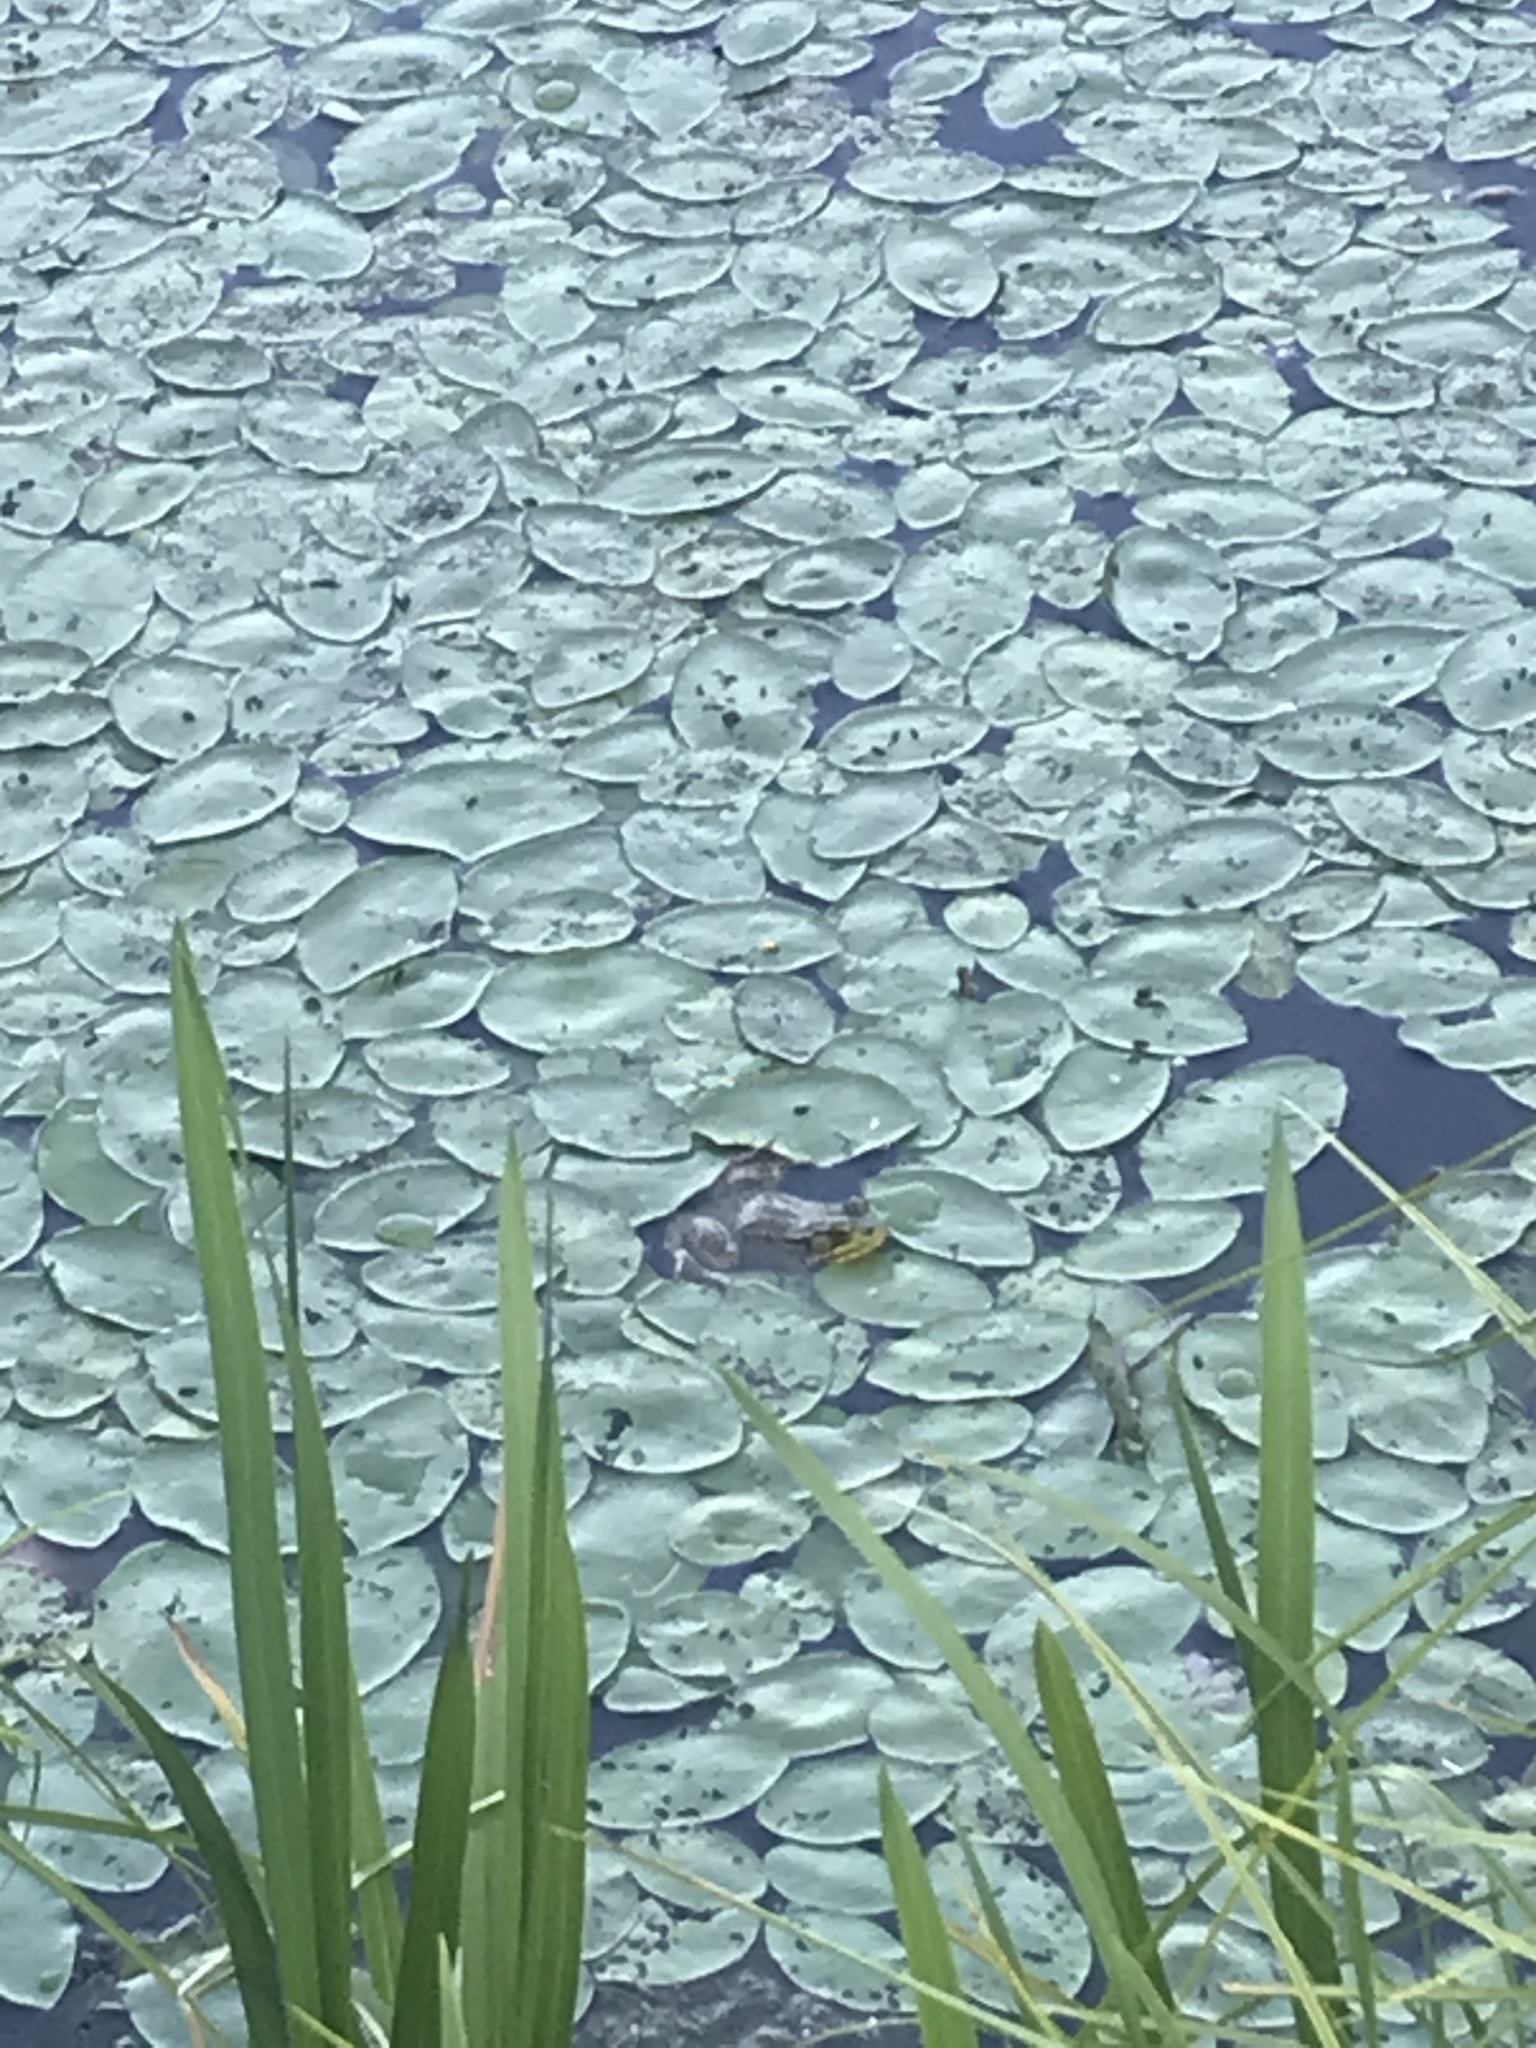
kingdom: Animalia
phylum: Chordata
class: Amphibia
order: Anura
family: Ranidae
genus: Lithobates
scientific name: Lithobates clamitans
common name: Green frog
